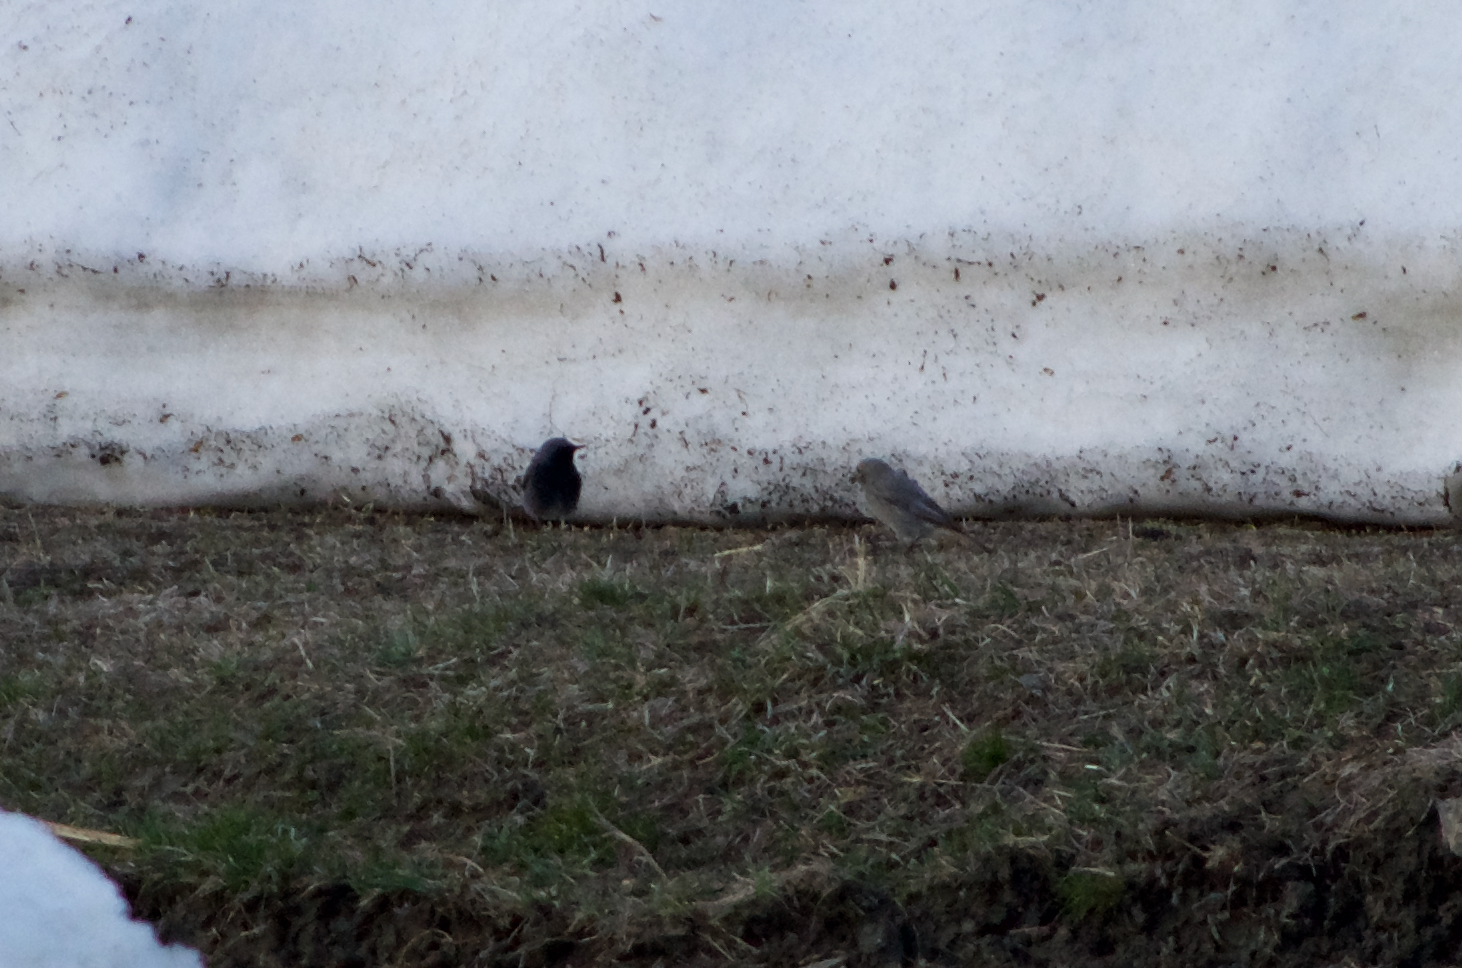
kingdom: Animalia
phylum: Chordata
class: Aves
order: Passeriformes
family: Muscicapidae
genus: Phoenicurus
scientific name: Phoenicurus ochruros
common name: Black redstart
